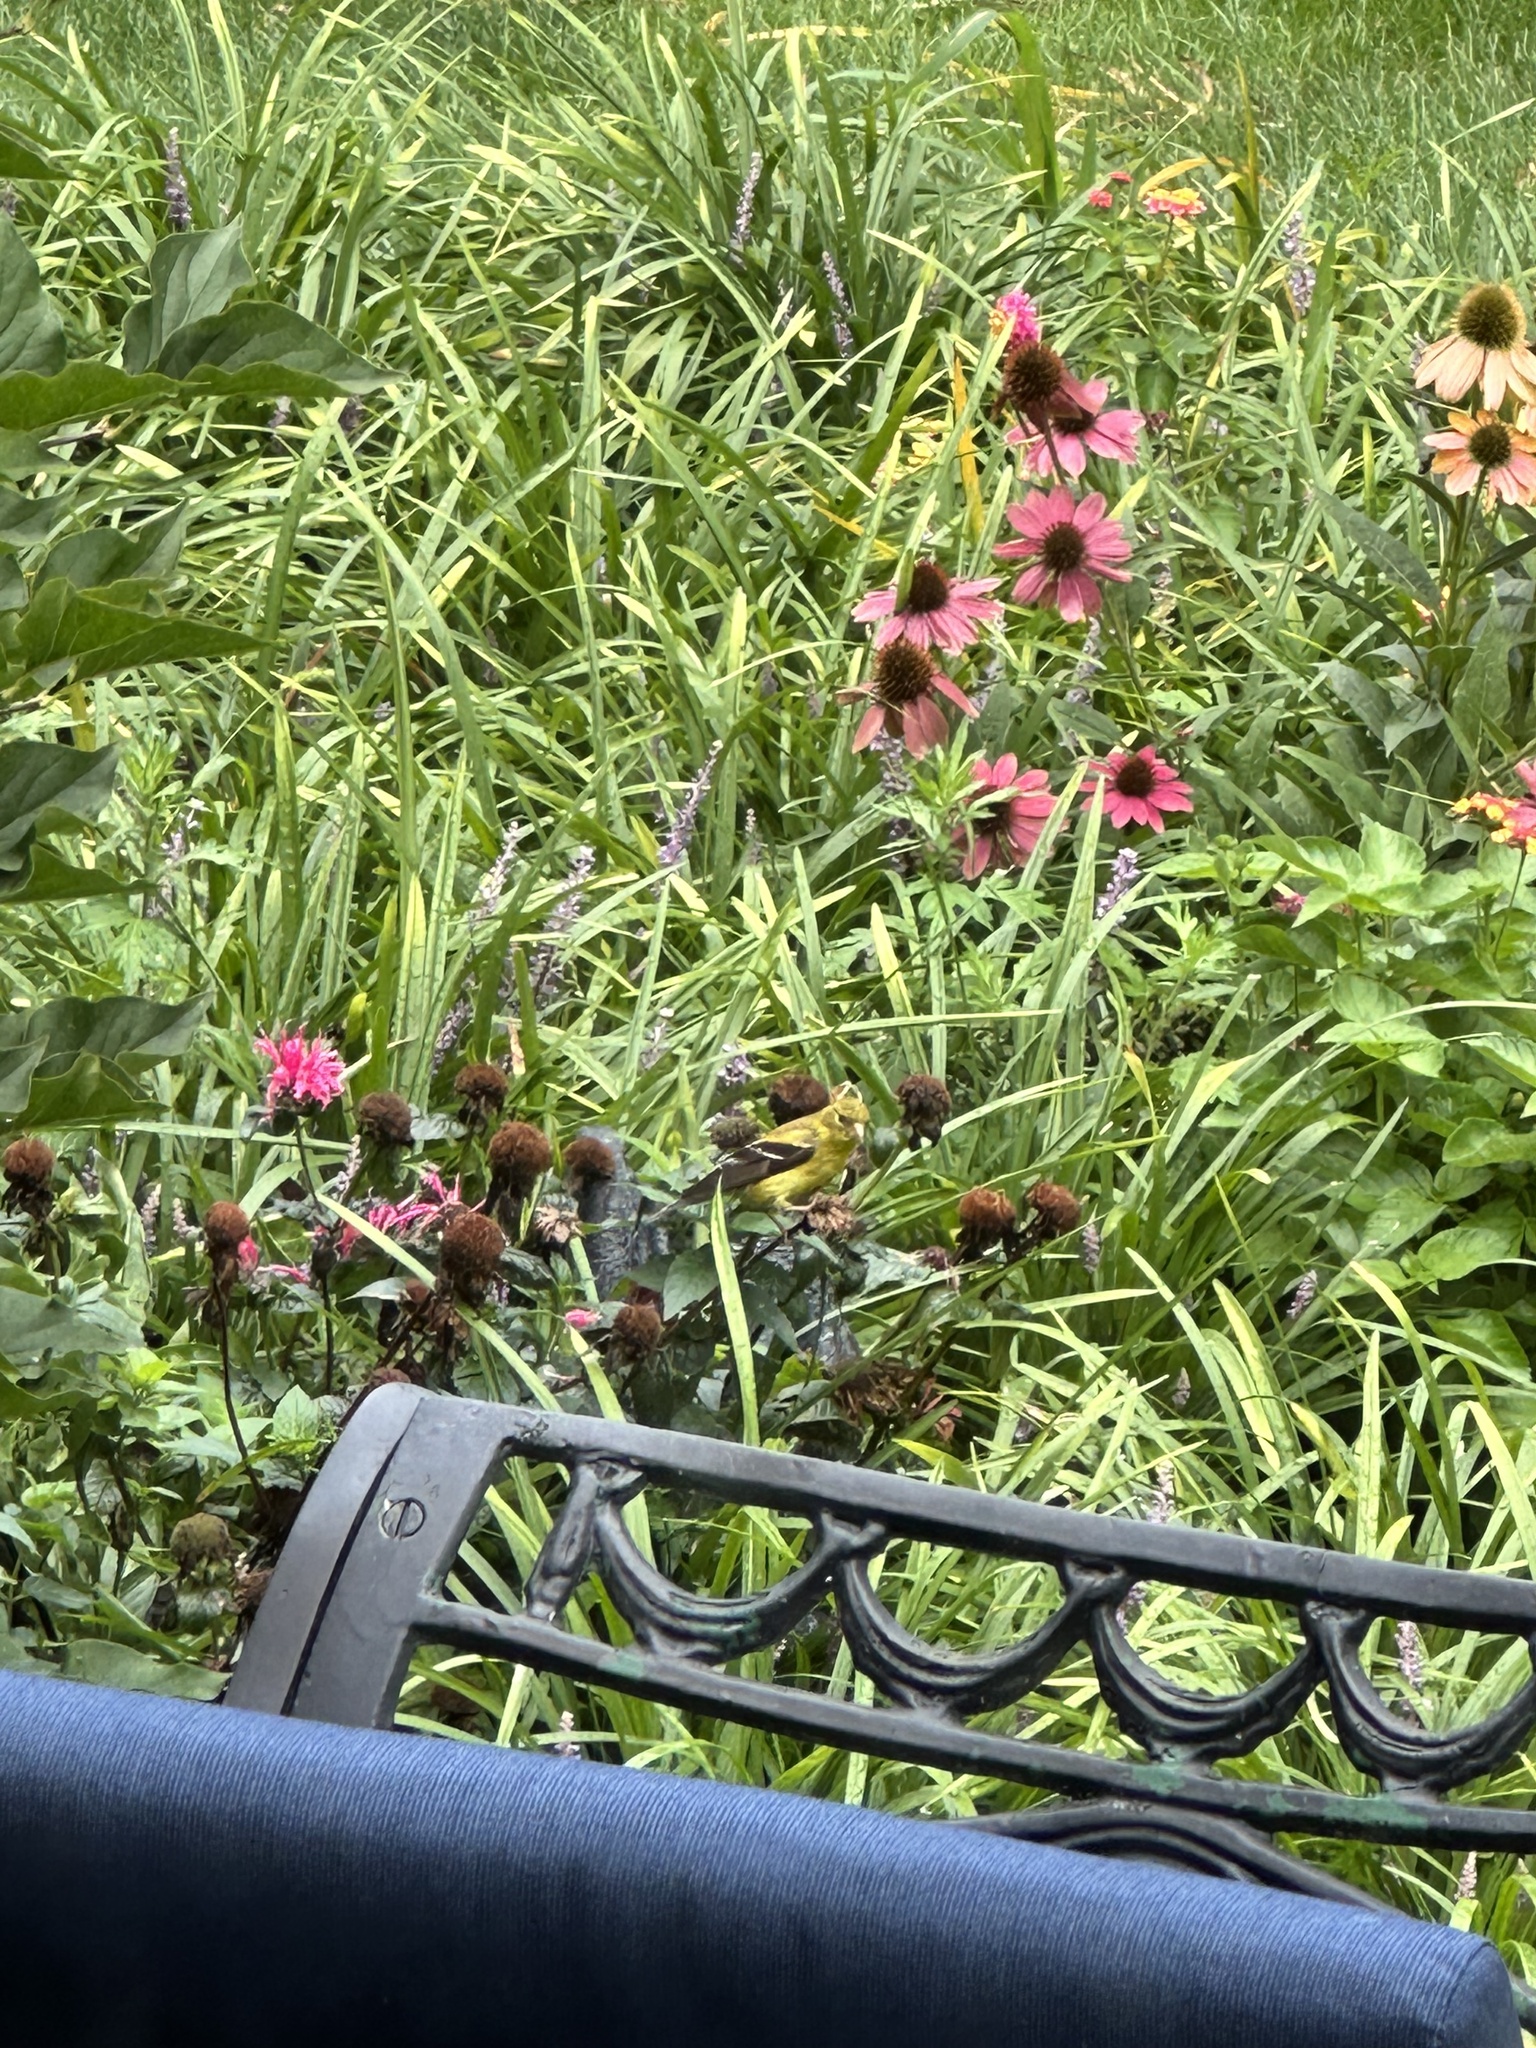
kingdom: Animalia
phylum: Chordata
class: Aves
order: Passeriformes
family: Fringillidae
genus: Spinus
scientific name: Spinus tristis
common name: American goldfinch
